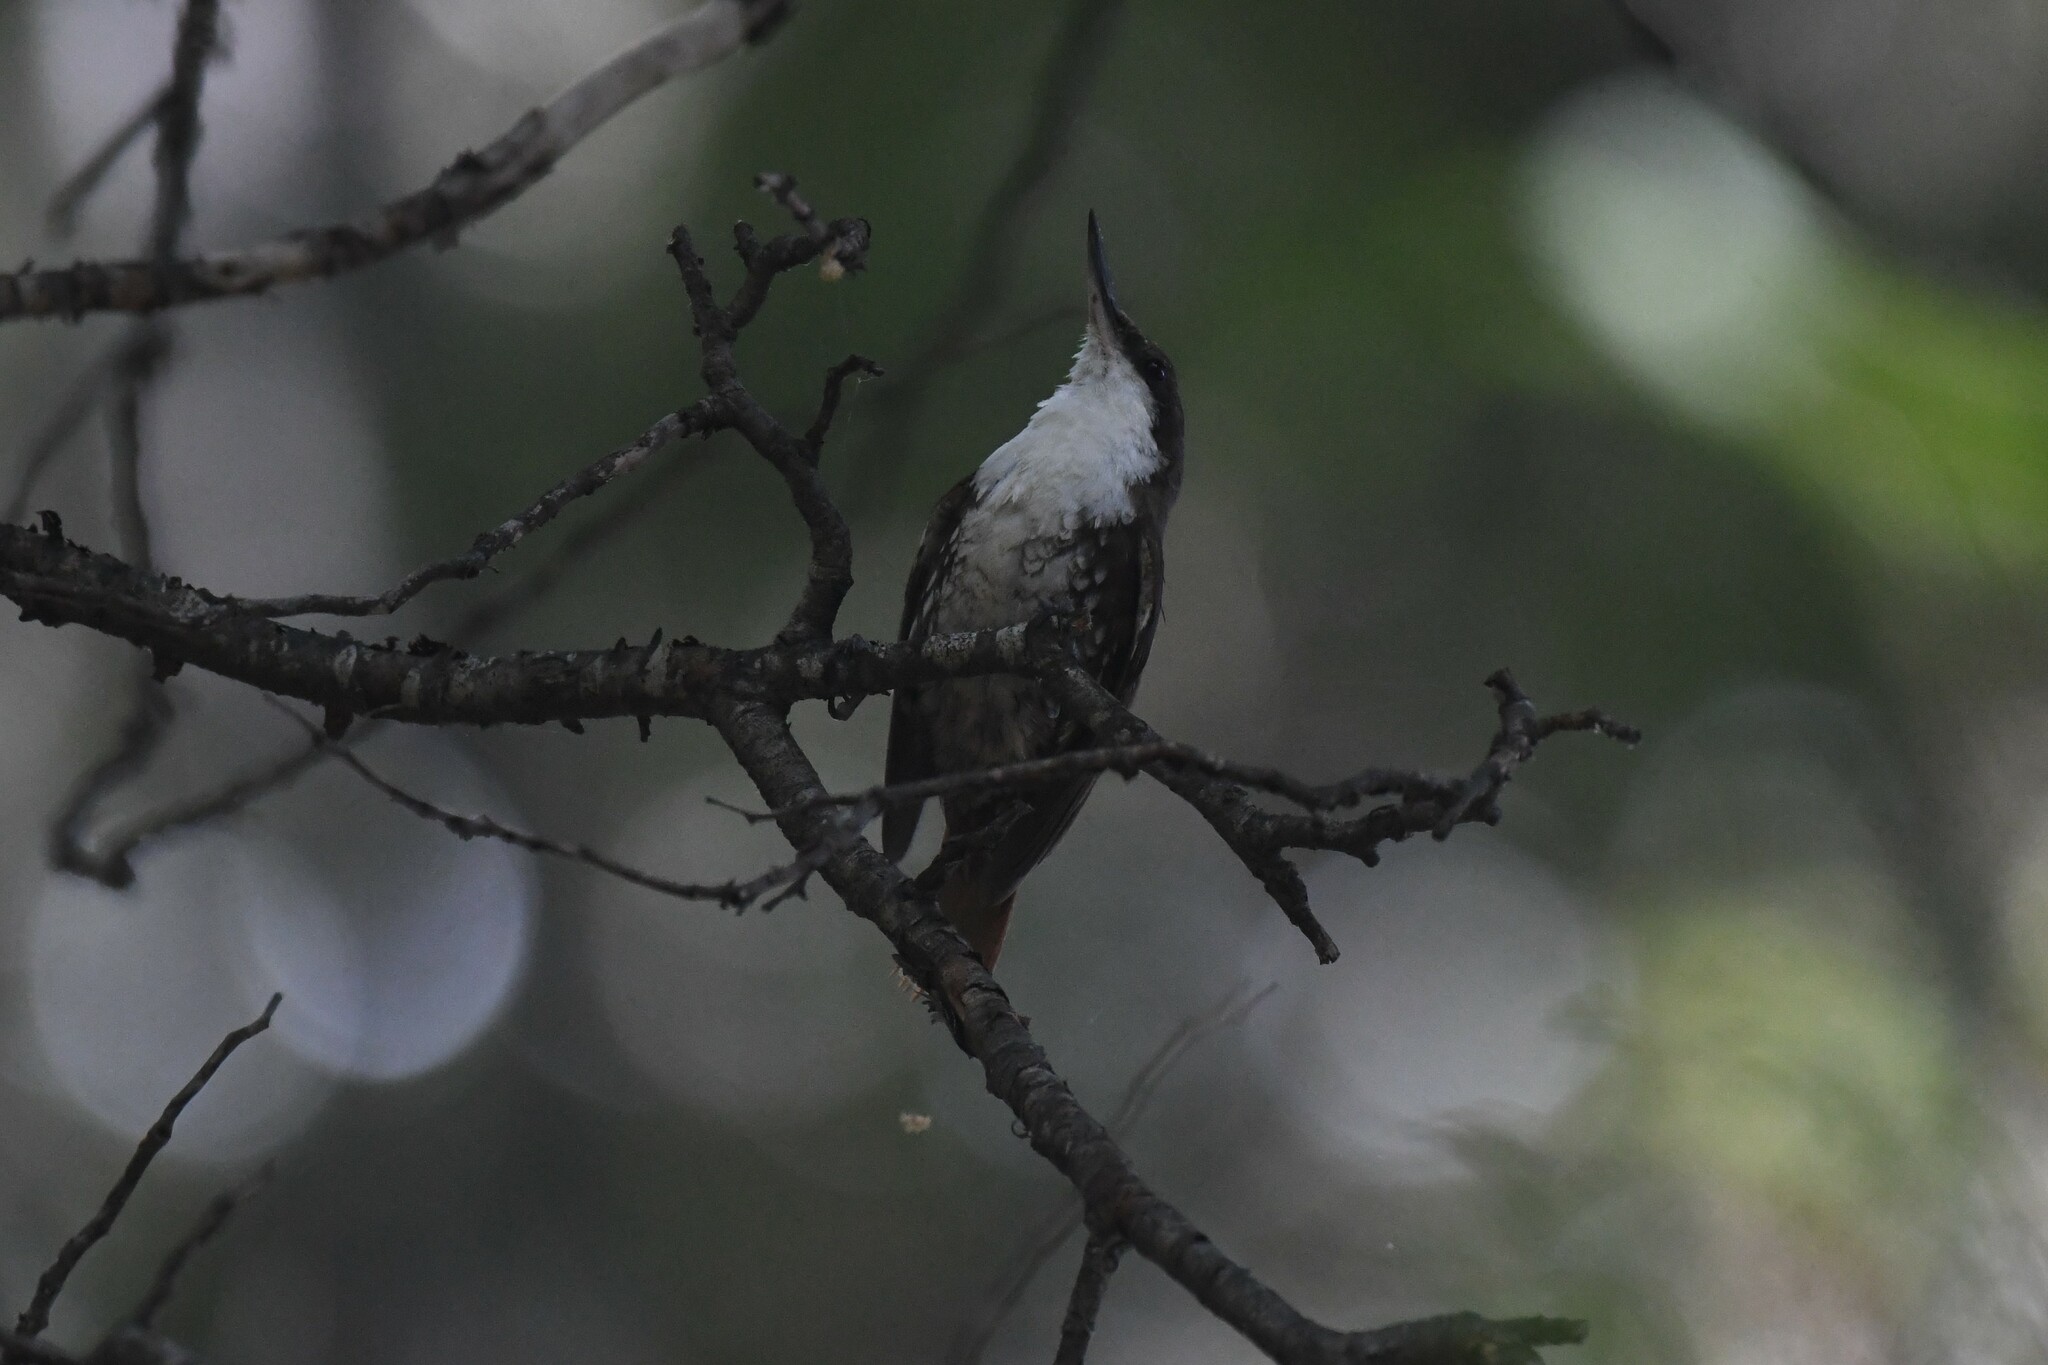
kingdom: Animalia
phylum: Chordata
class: Aves
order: Passeriformes
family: Furnariidae
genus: Pygarrhichas
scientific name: Pygarrhichas albogularis
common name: White-throated treerunner
